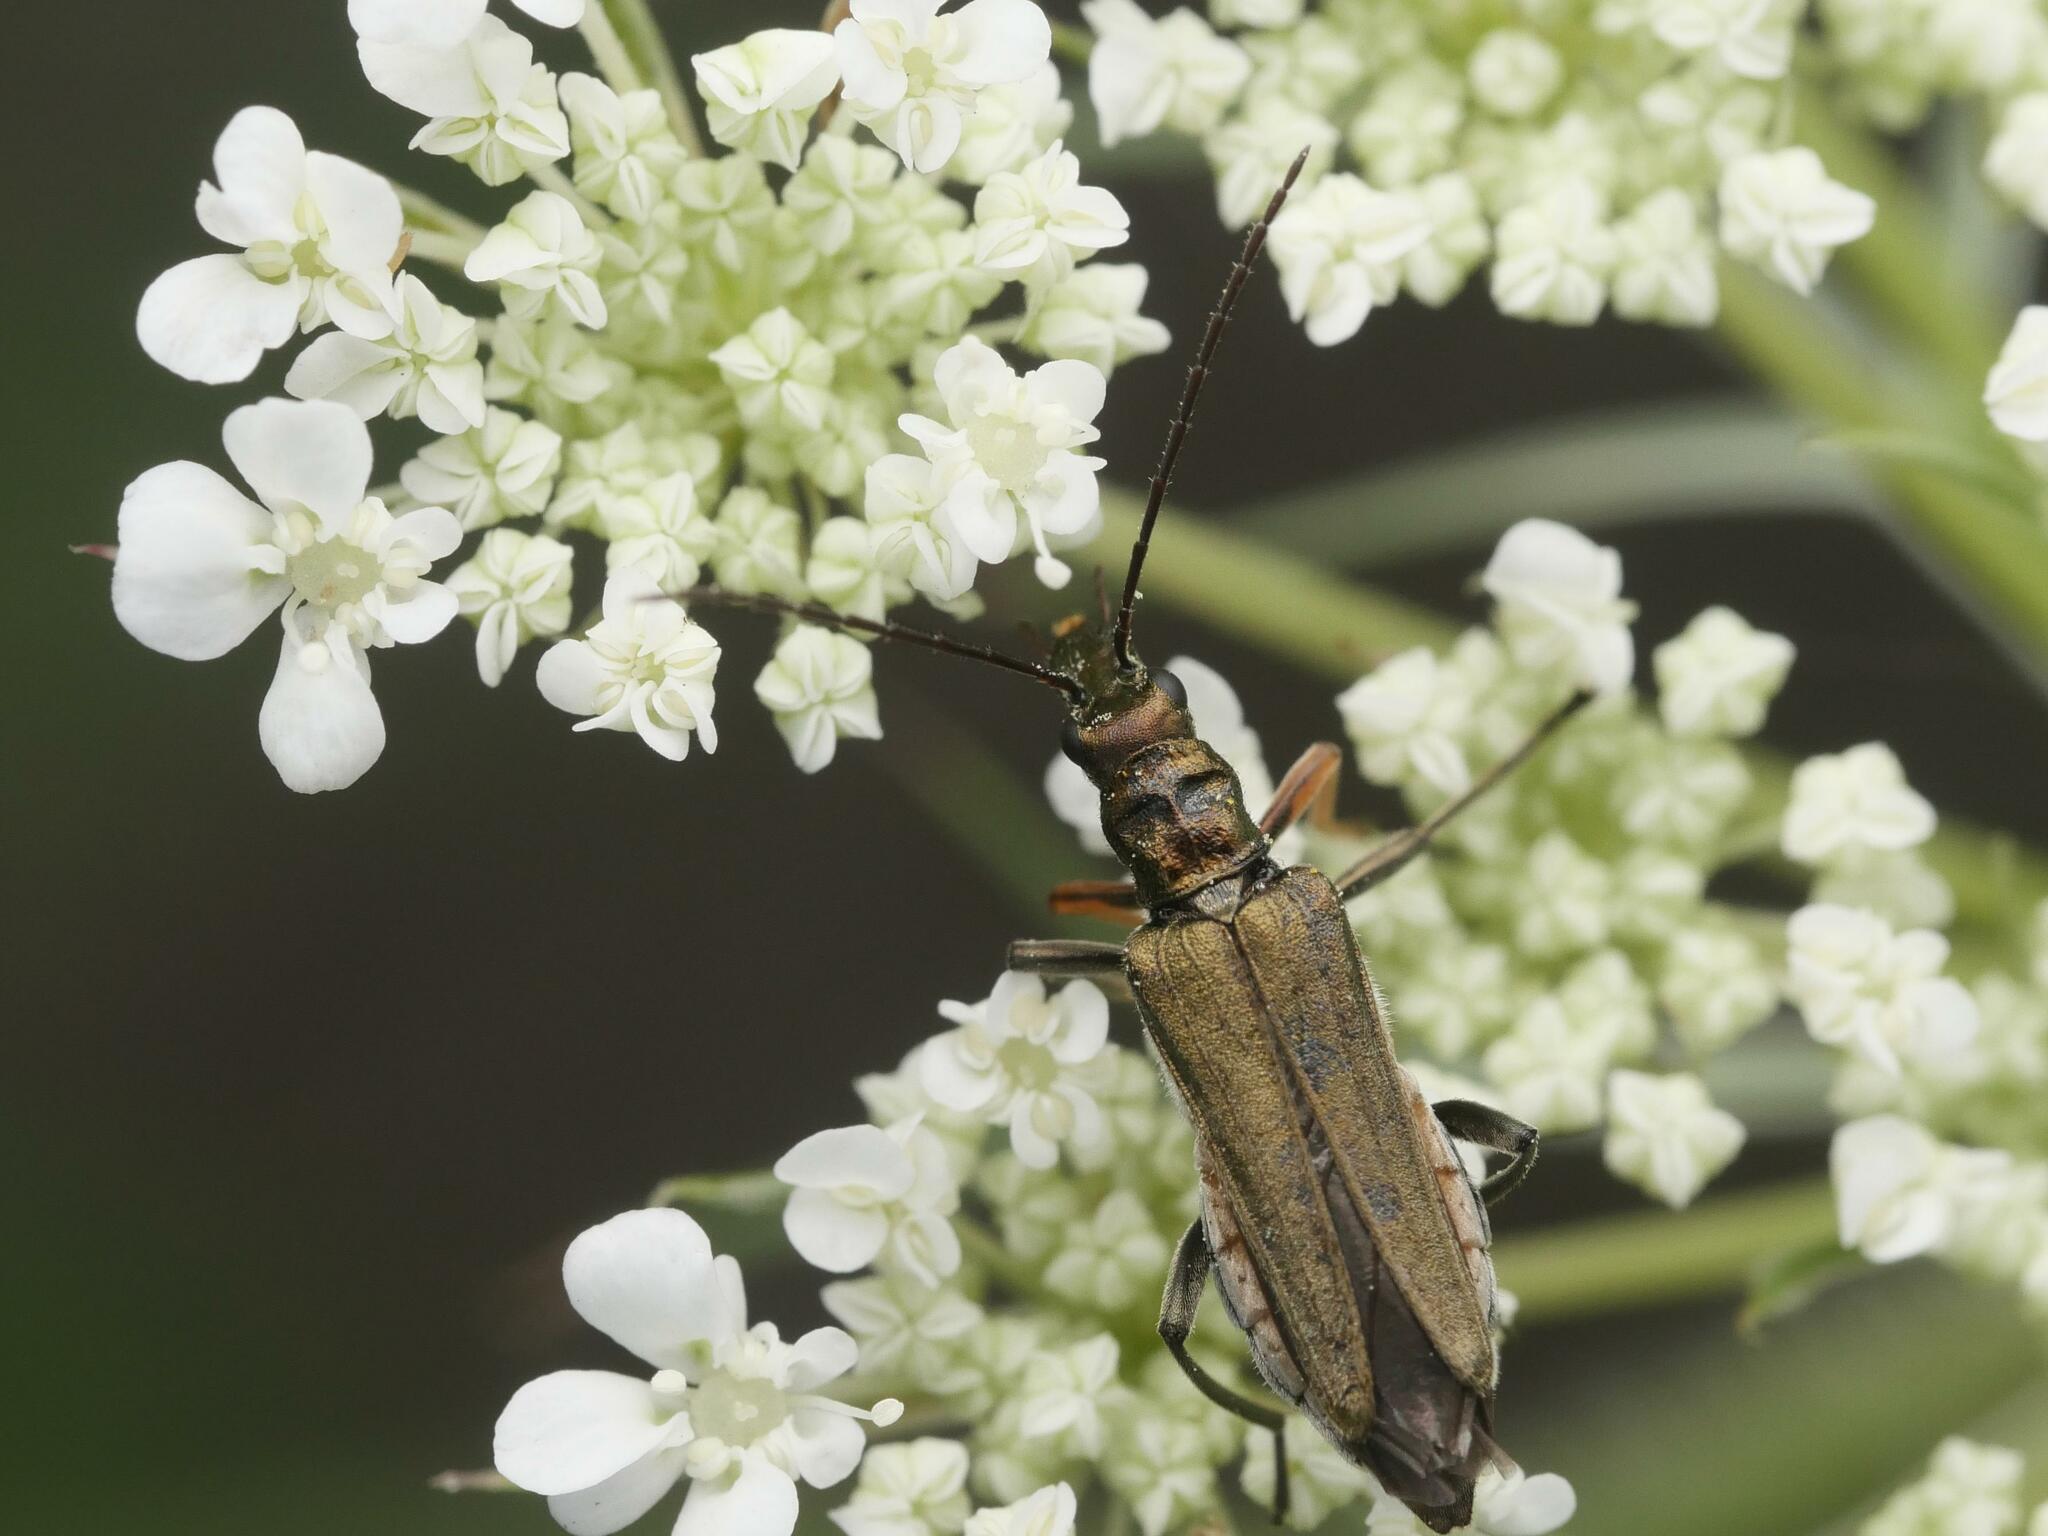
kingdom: Animalia
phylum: Arthropoda
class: Insecta
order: Coleoptera
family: Oedemeridae
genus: Oedemera
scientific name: Oedemera flavipes
